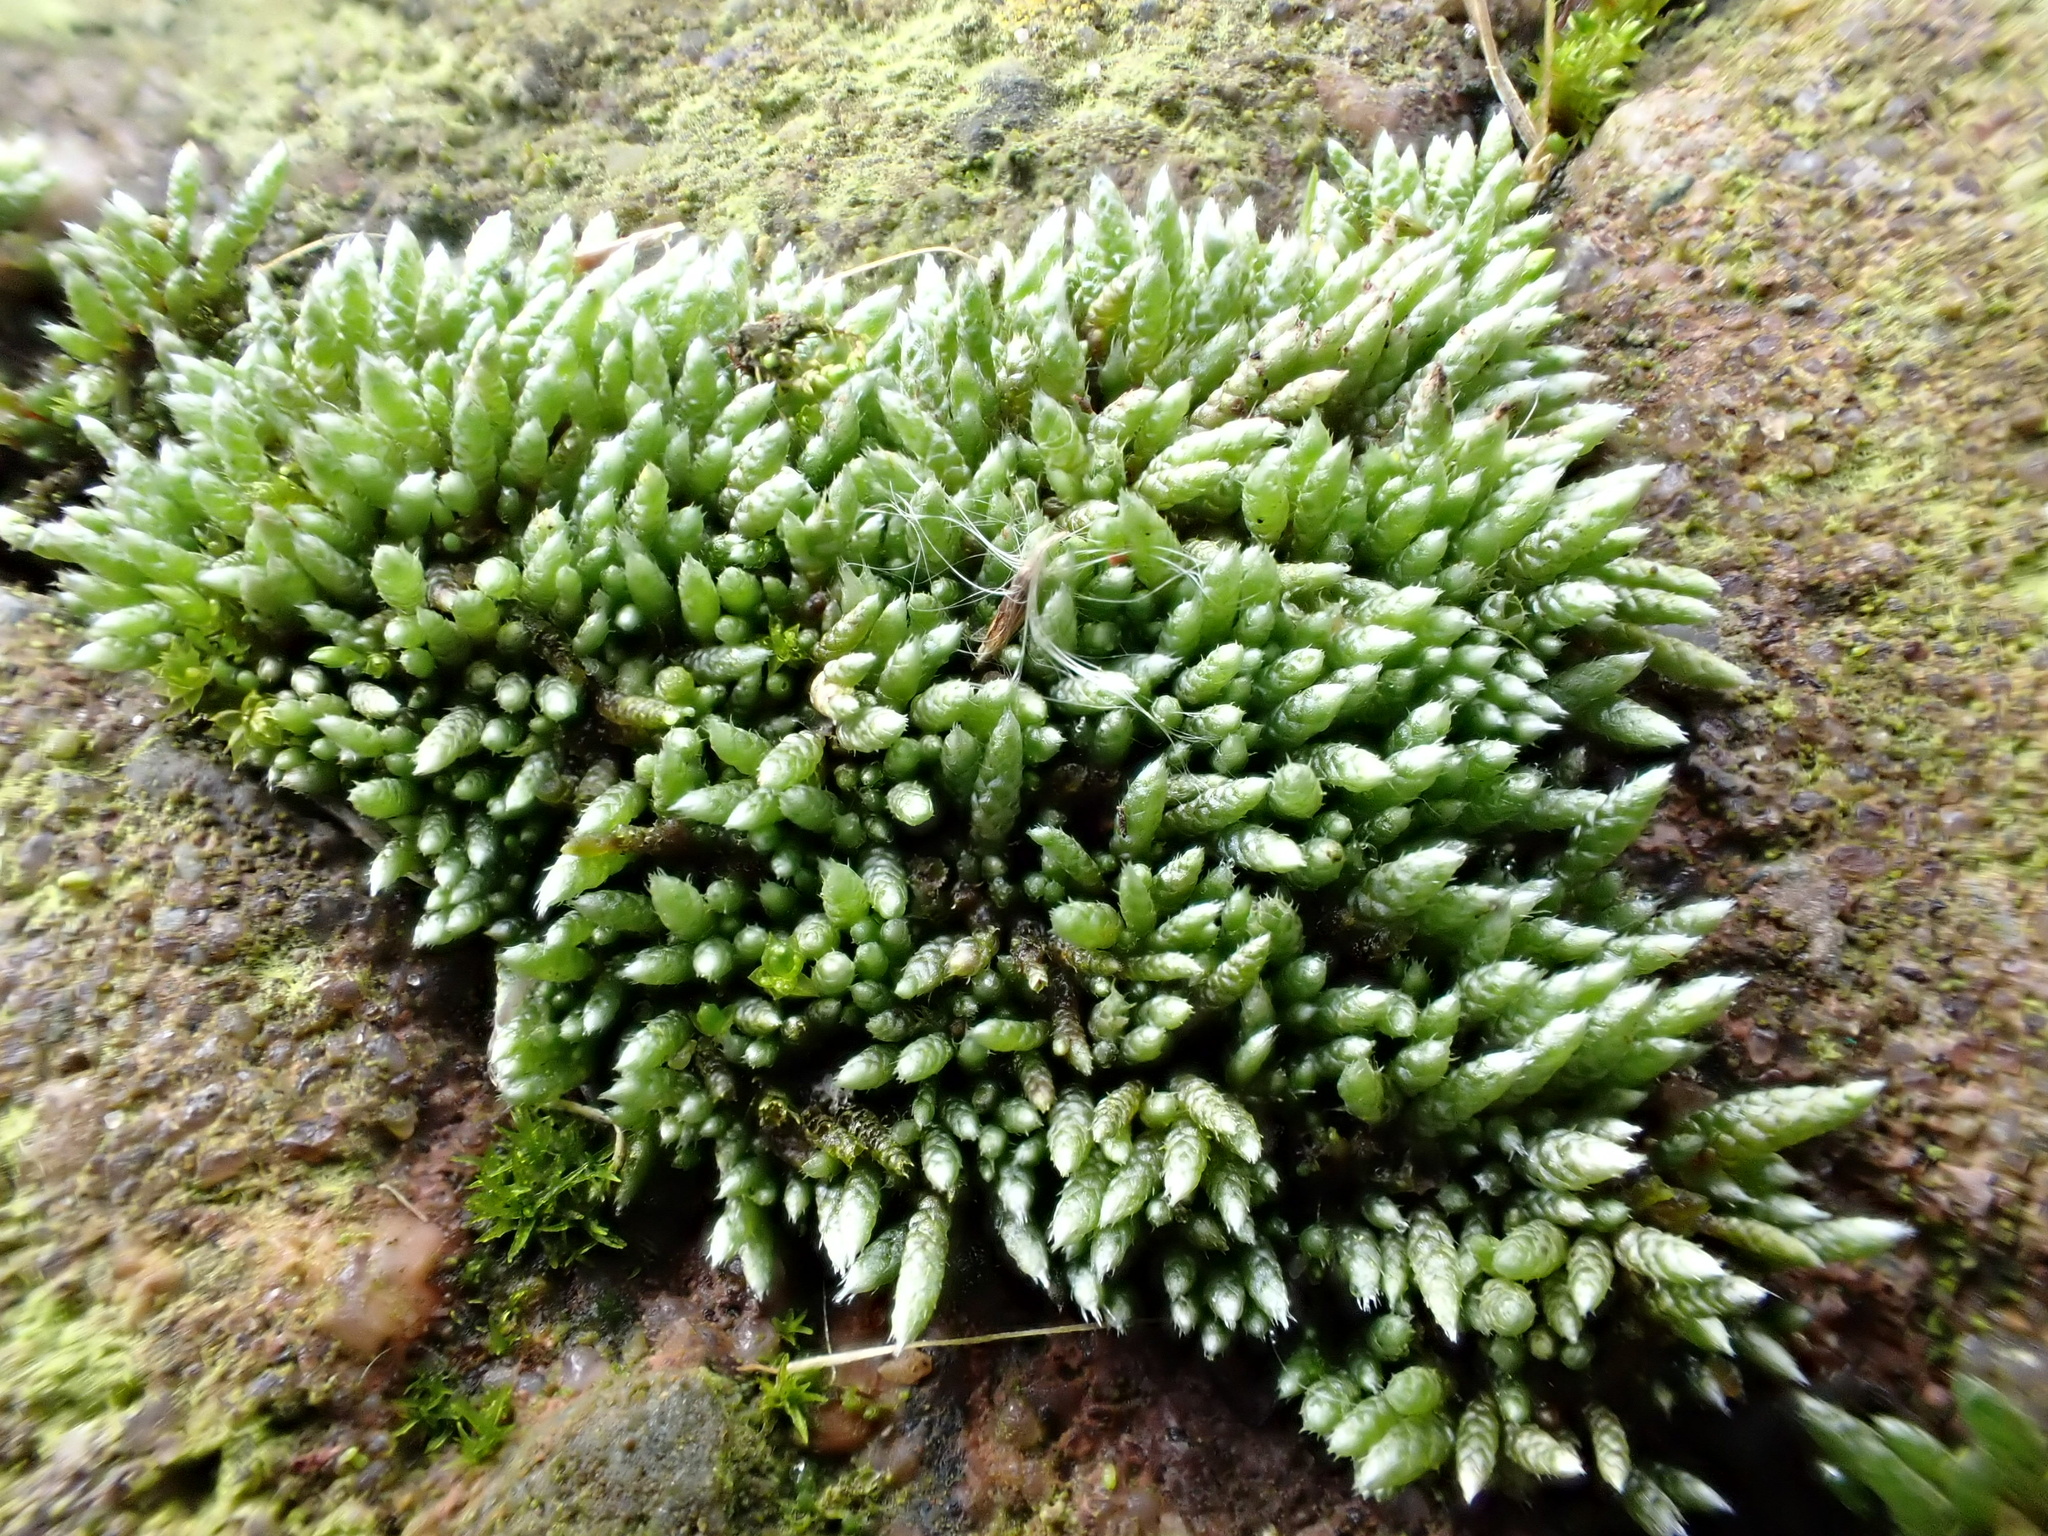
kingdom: Plantae
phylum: Bryophyta
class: Bryopsida
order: Bryales
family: Bryaceae
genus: Bryum
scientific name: Bryum argenteum
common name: Silver-moss
